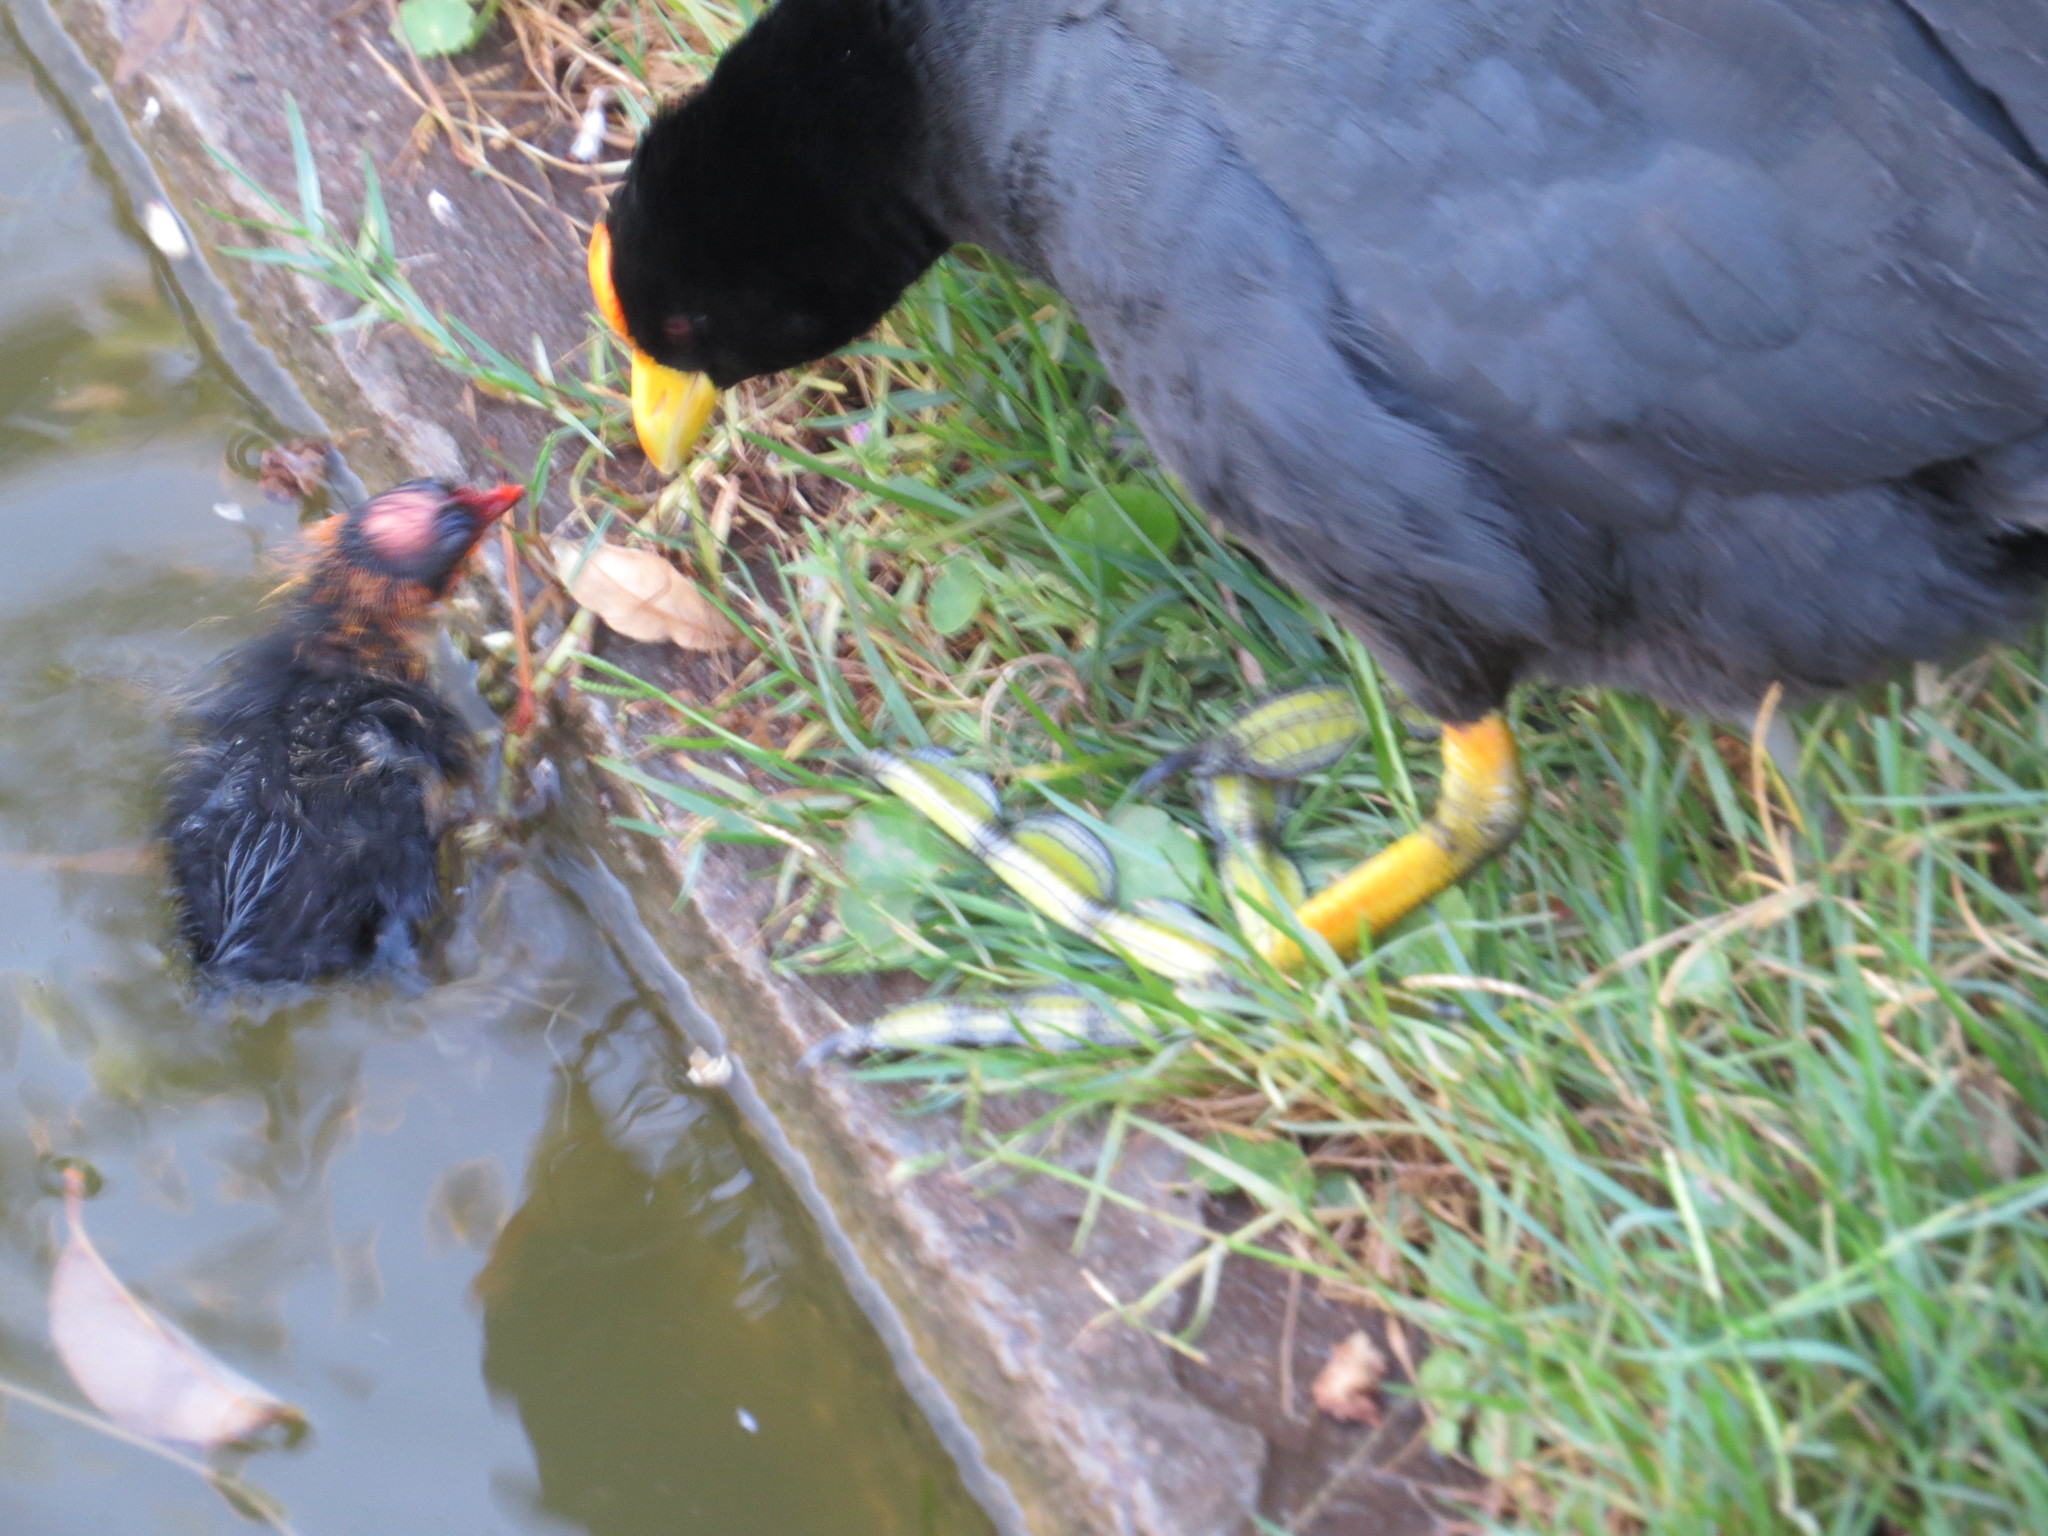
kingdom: Animalia
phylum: Chordata
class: Aves
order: Gruiformes
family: Rallidae
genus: Fulica
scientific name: Fulica leucoptera
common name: White-winged coot
